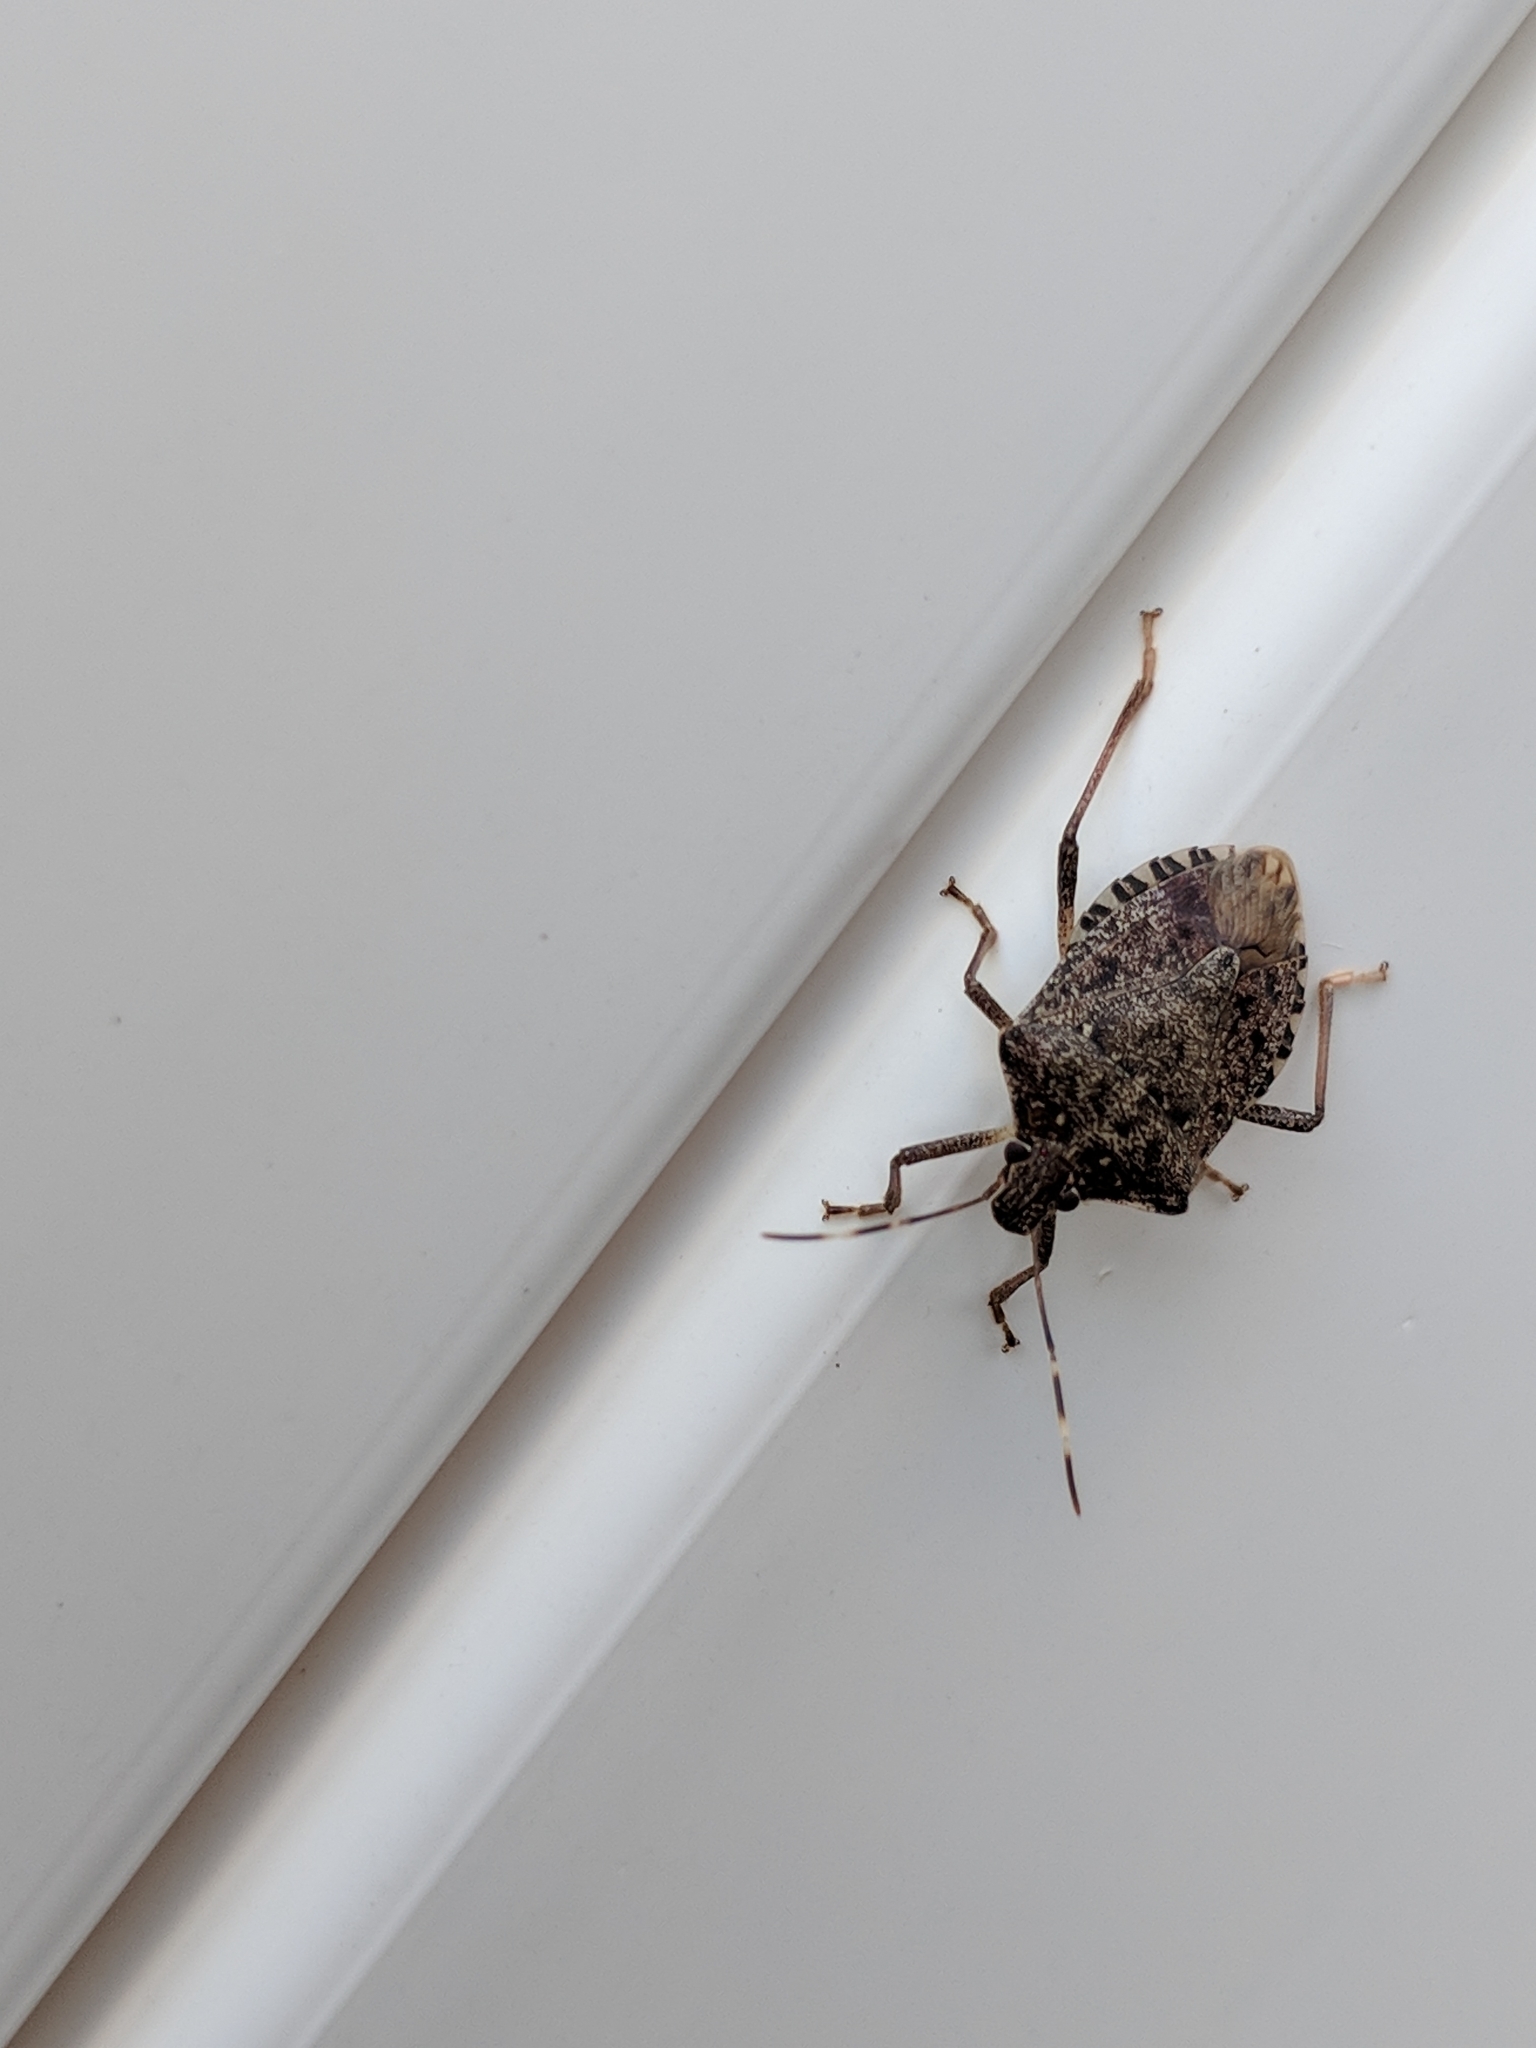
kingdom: Animalia
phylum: Arthropoda
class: Insecta
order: Hemiptera
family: Pentatomidae
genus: Halyomorpha
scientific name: Halyomorpha halys
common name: Brown marmorated stink bug
